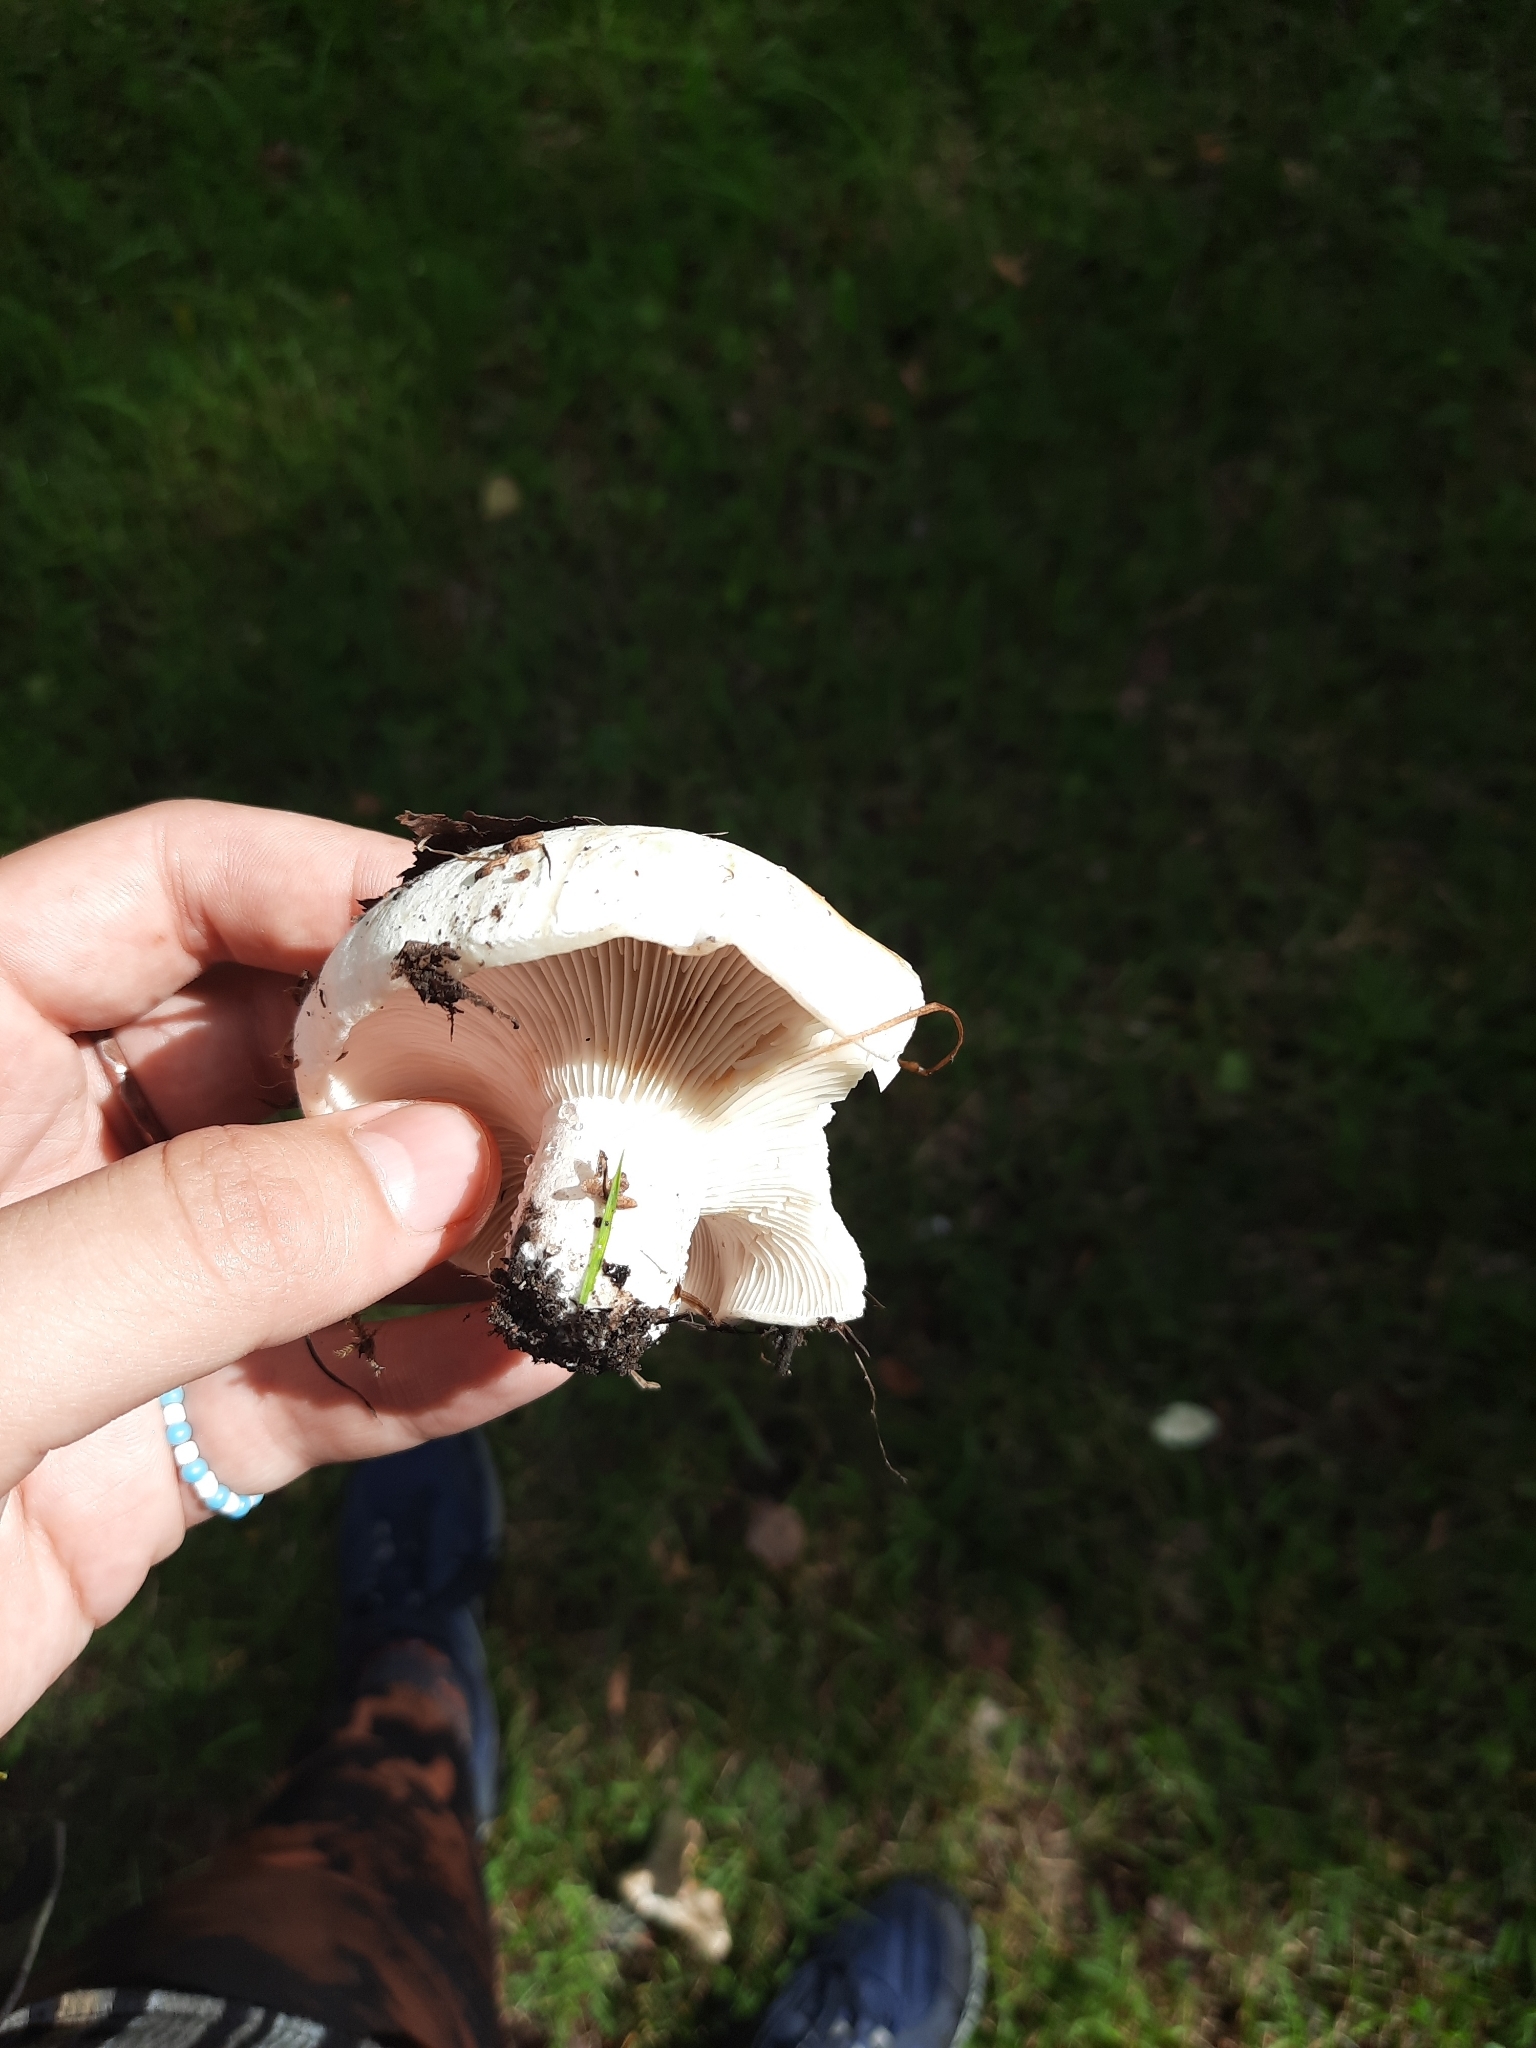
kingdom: Fungi
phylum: Basidiomycota
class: Agaricomycetes
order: Russulales
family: Russulaceae
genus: Russula
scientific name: Russula delica
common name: Milk white brittlegill
